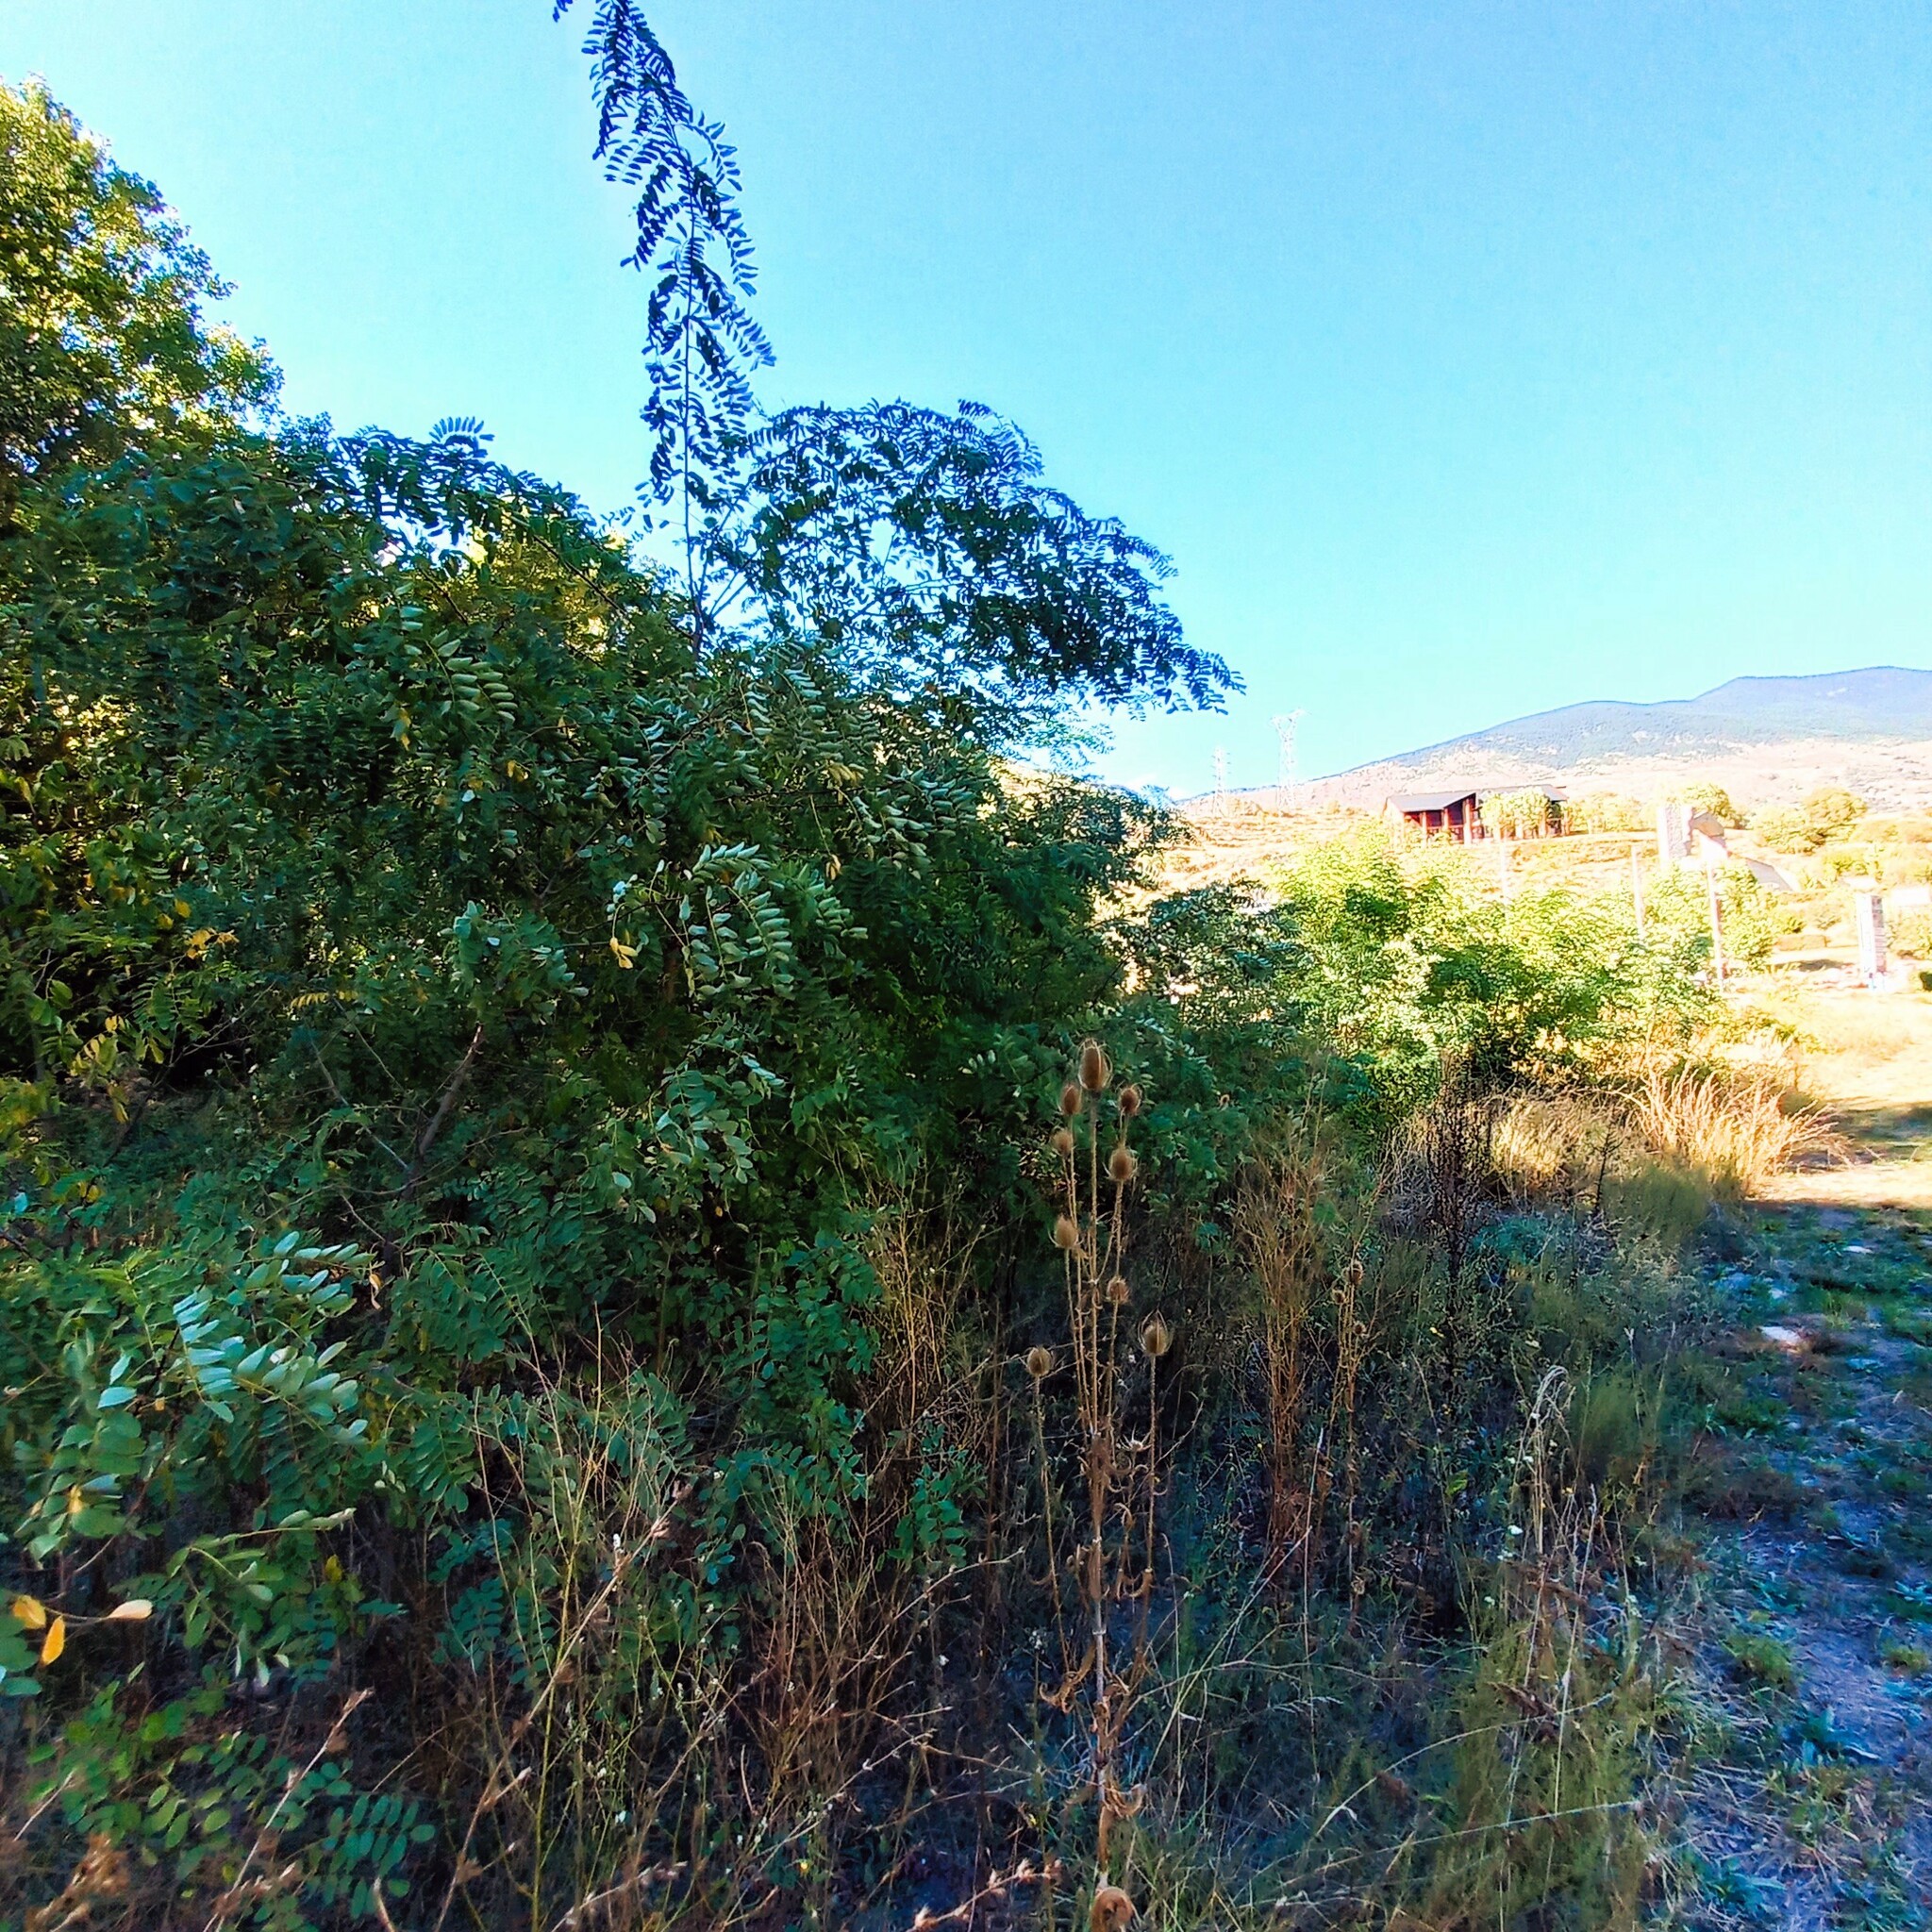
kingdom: Plantae
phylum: Tracheophyta
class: Magnoliopsida
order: Fabales
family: Fabaceae
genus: Robinia
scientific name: Robinia pseudoacacia
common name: Black locust
